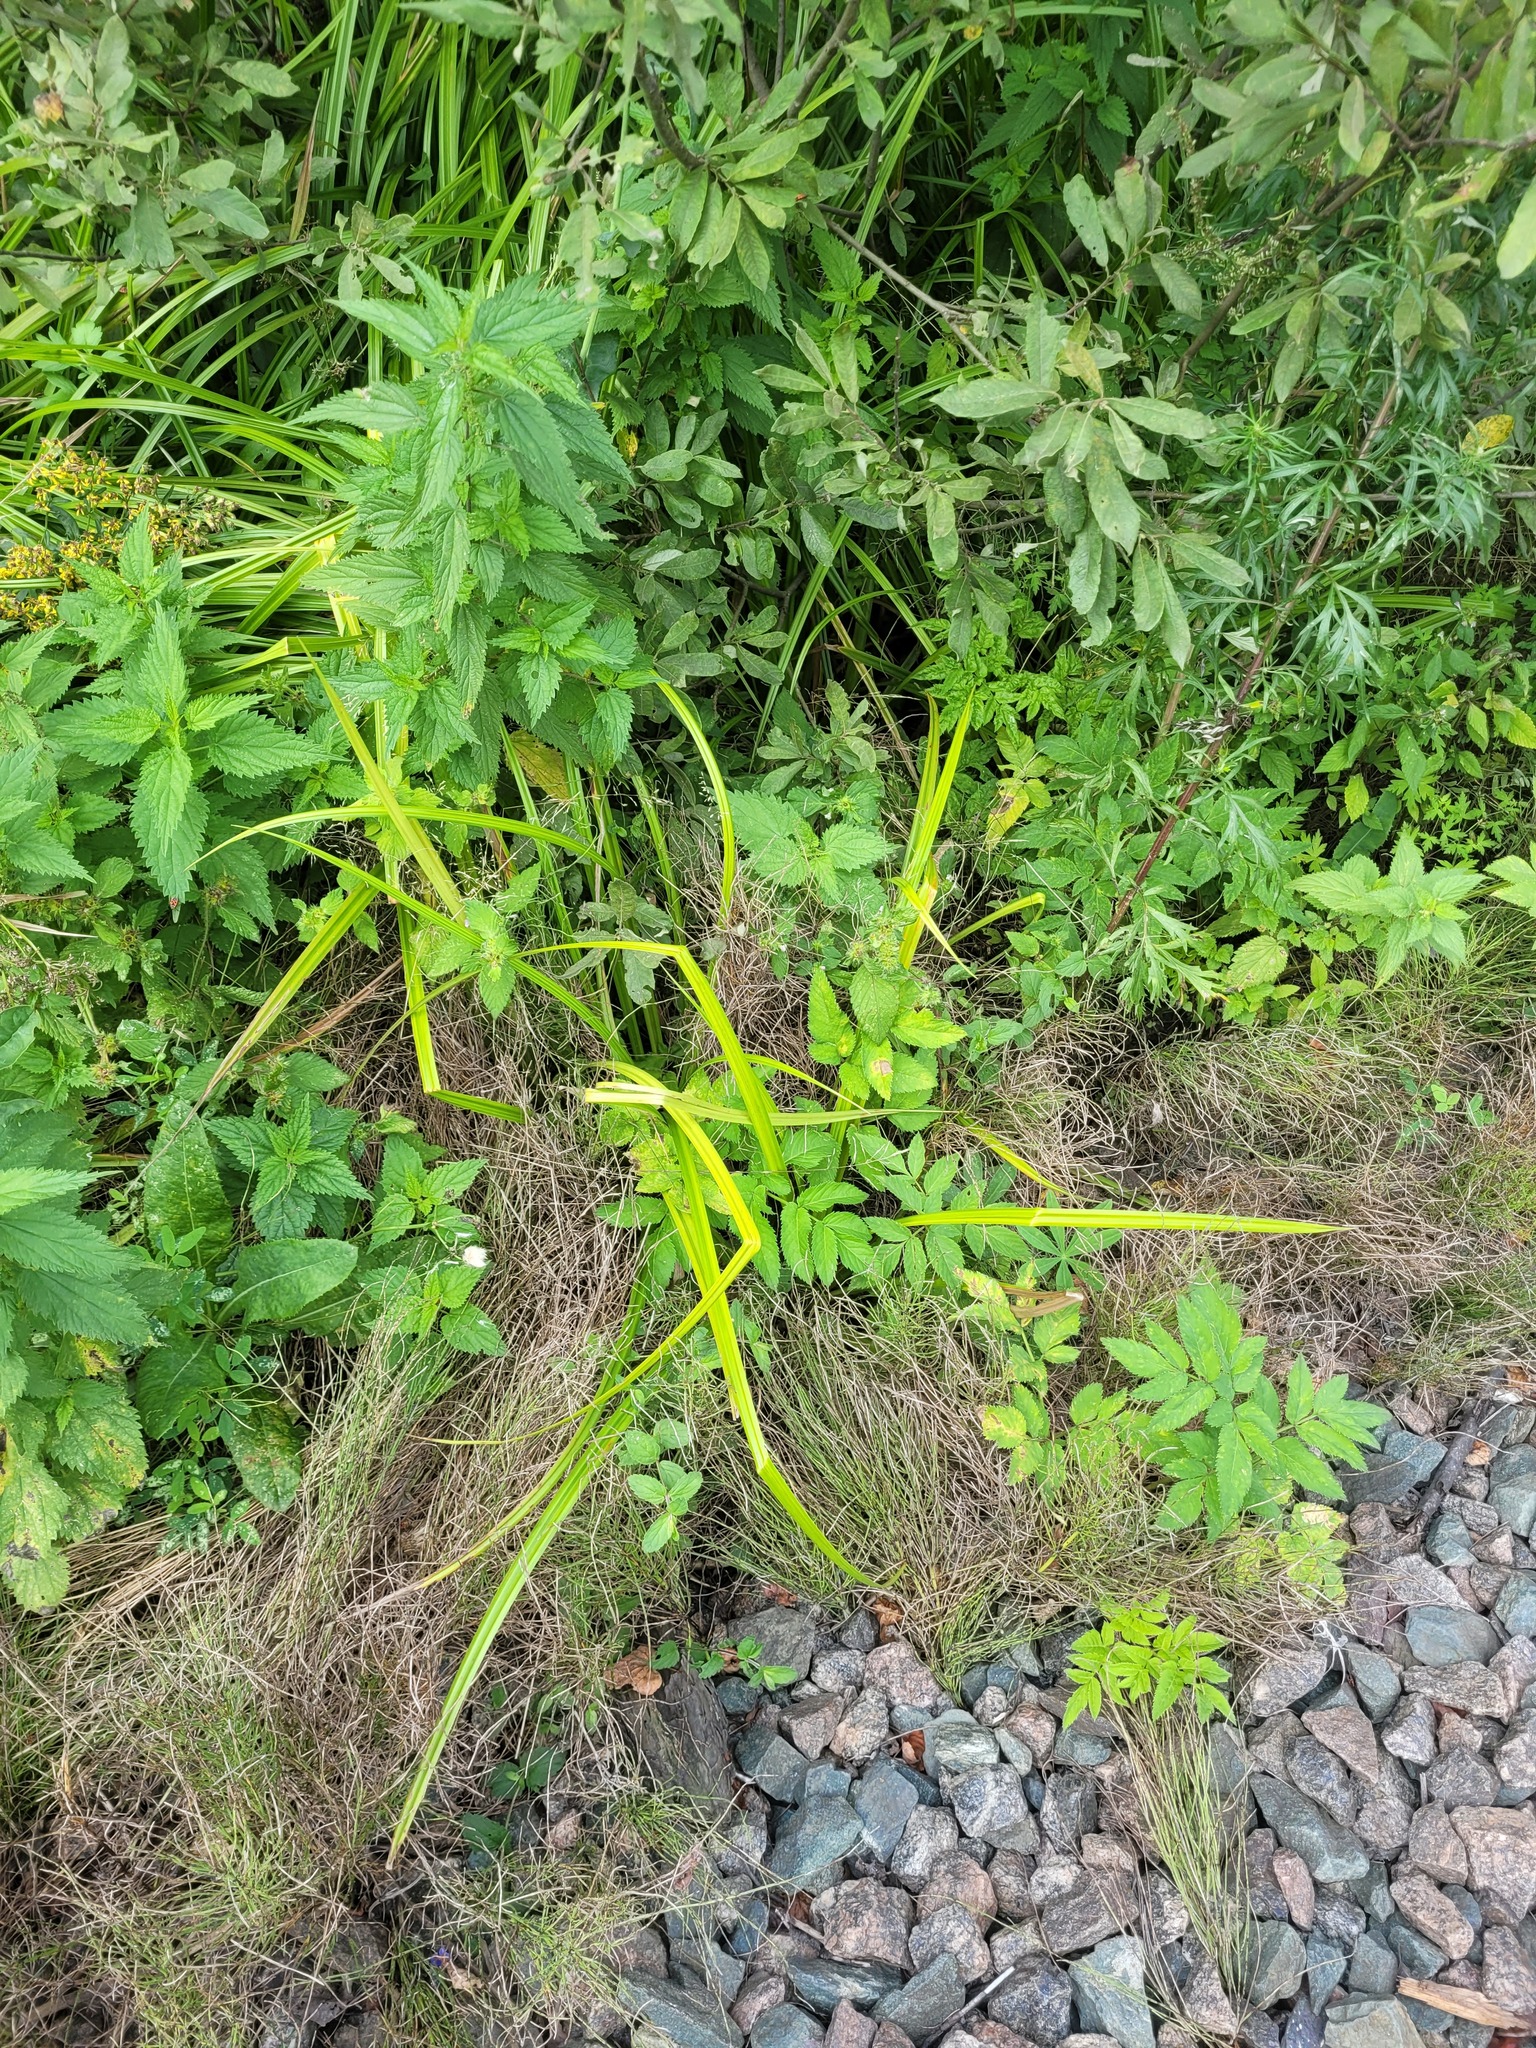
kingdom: Plantae
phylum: Tracheophyta
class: Liliopsida
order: Poales
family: Cyperaceae
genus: Scirpus
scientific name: Scirpus sylvaticus
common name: Wood club-rush
